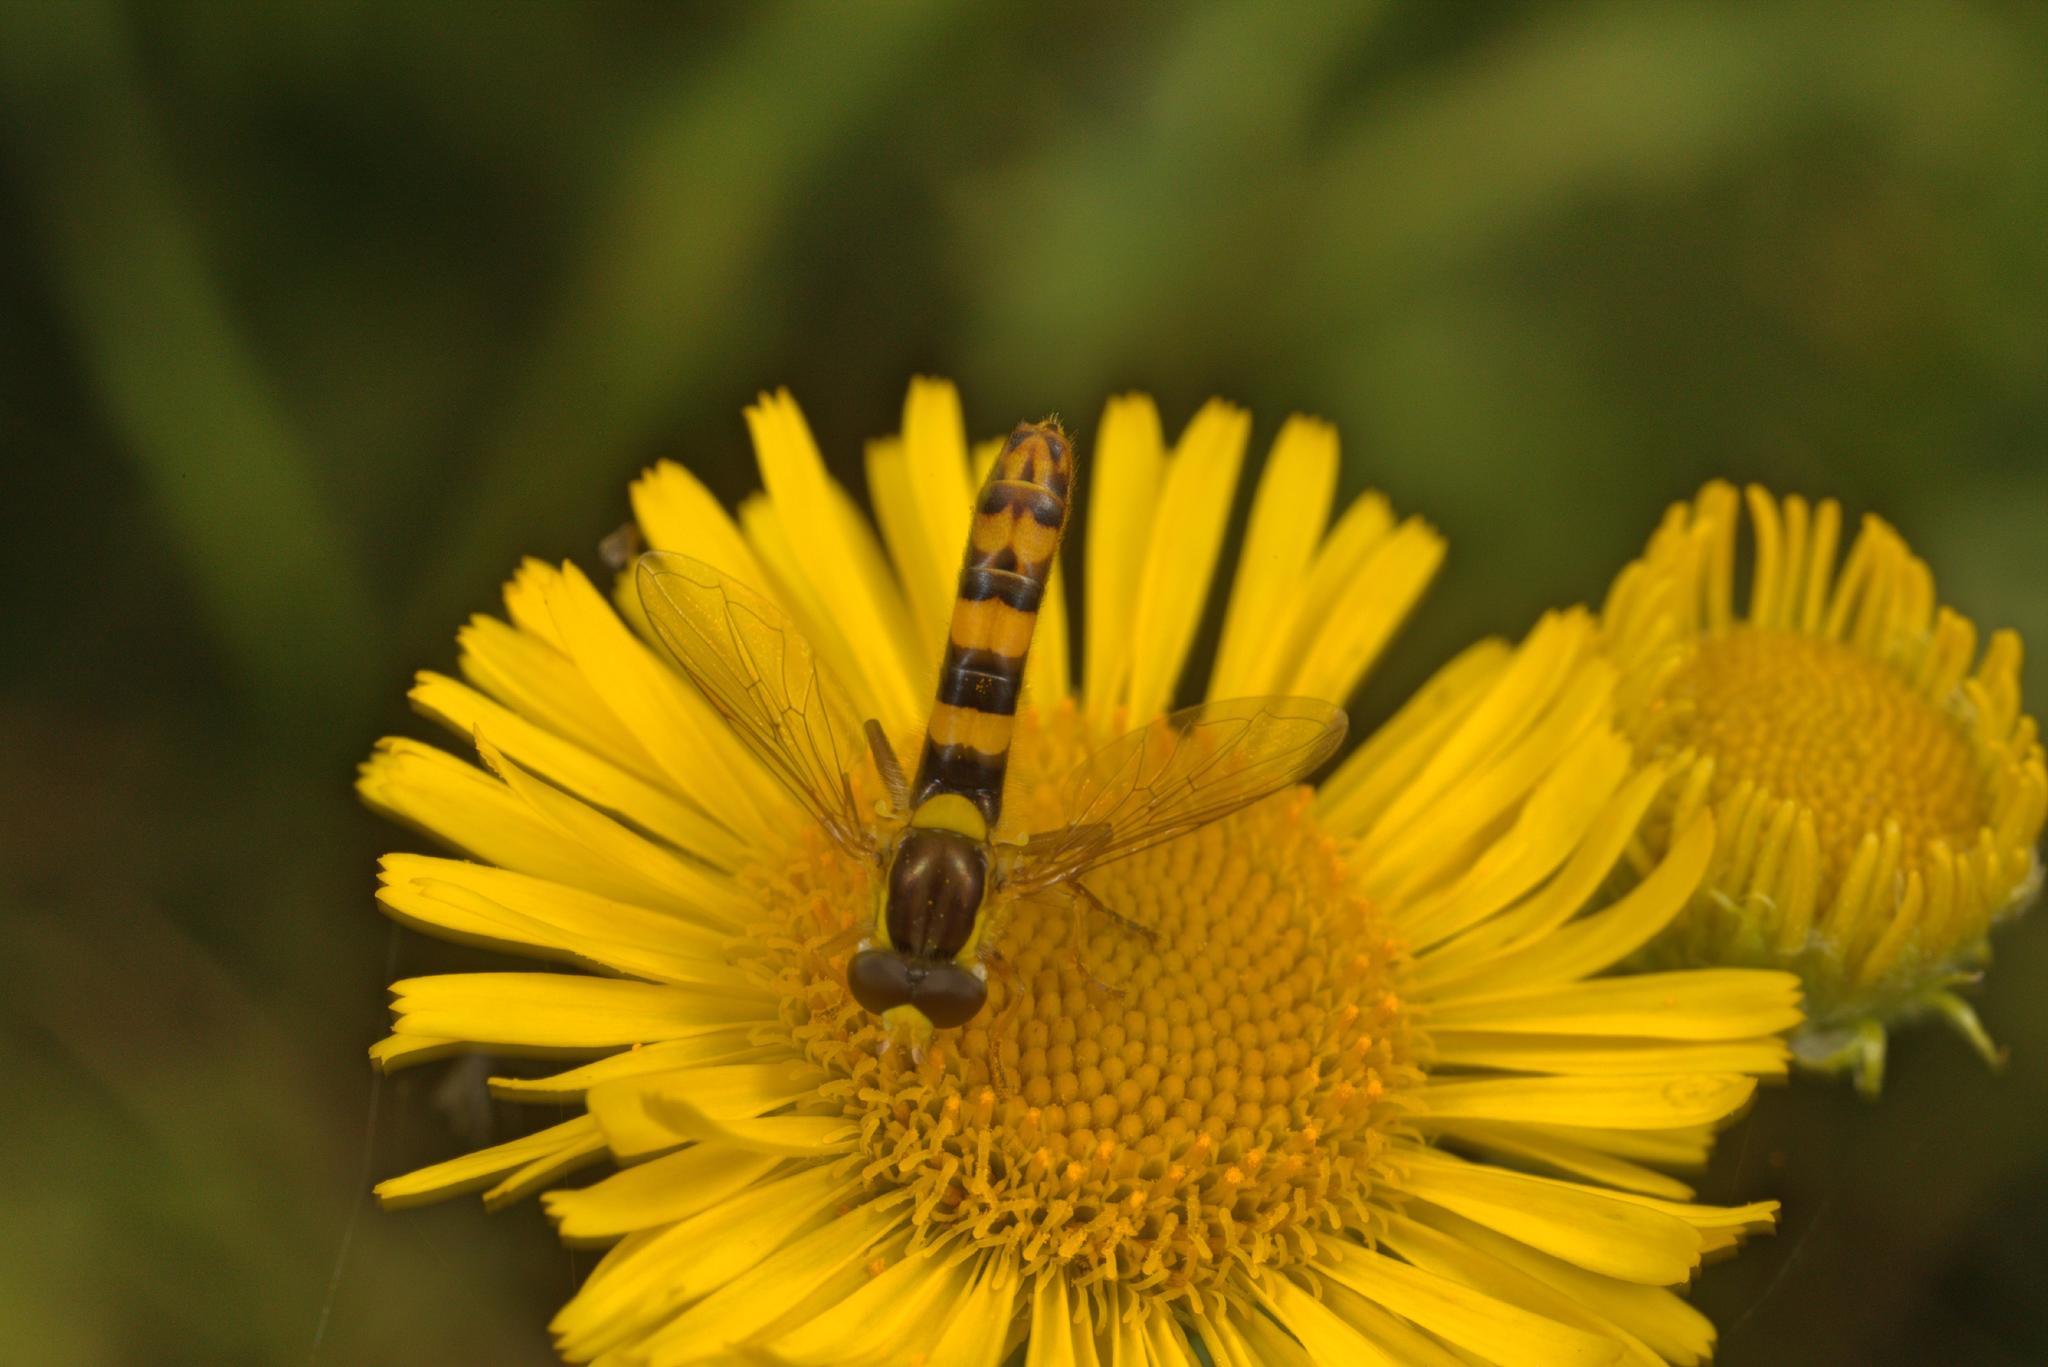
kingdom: Animalia
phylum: Arthropoda
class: Insecta
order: Diptera
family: Syrphidae
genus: Sphaerophoria
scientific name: Sphaerophoria scripta
